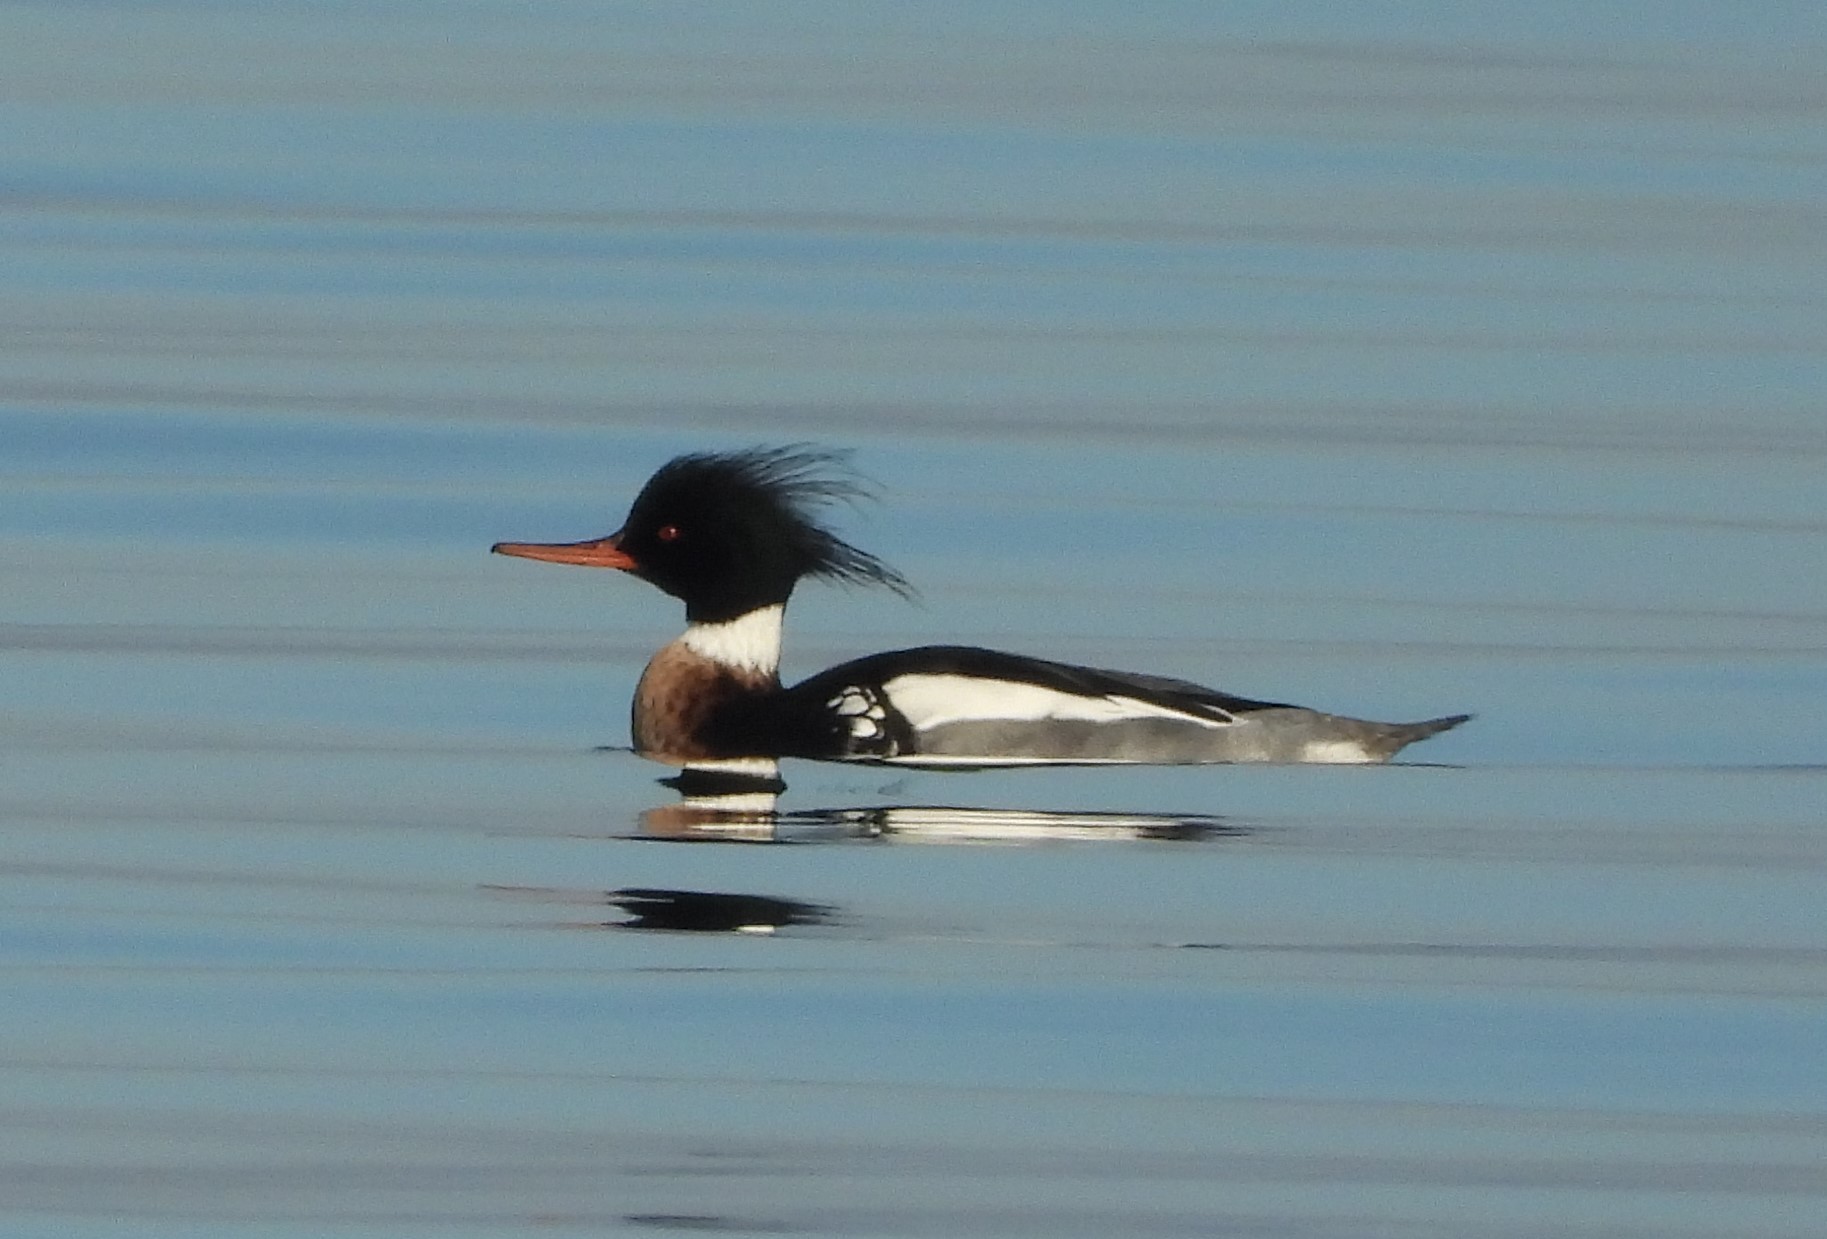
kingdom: Animalia
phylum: Chordata
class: Aves
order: Anseriformes
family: Anatidae
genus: Mergus
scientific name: Mergus serrator
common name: Red-breasted merganser
